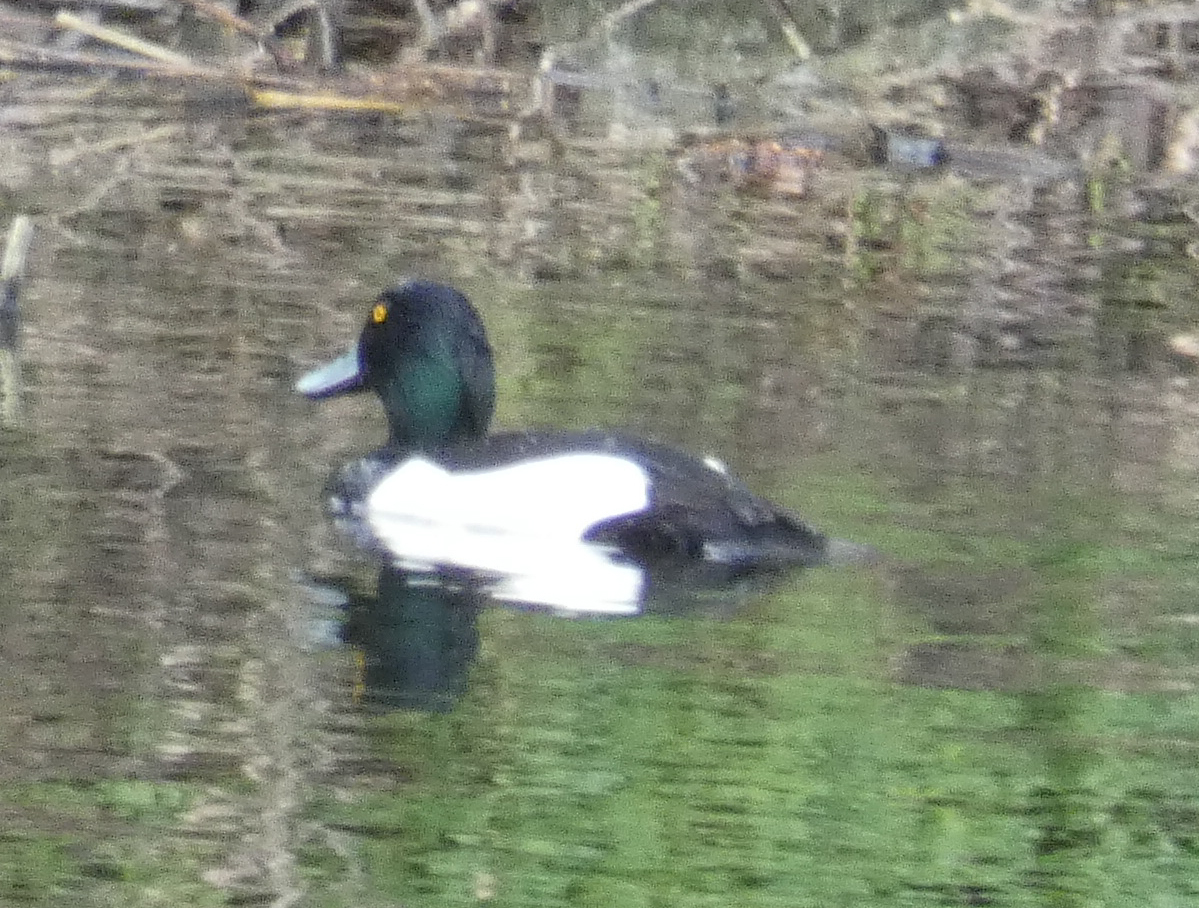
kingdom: Animalia
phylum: Chordata
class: Aves
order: Anseriformes
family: Anatidae
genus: Aythya
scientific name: Aythya fuligula
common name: Tufted duck
